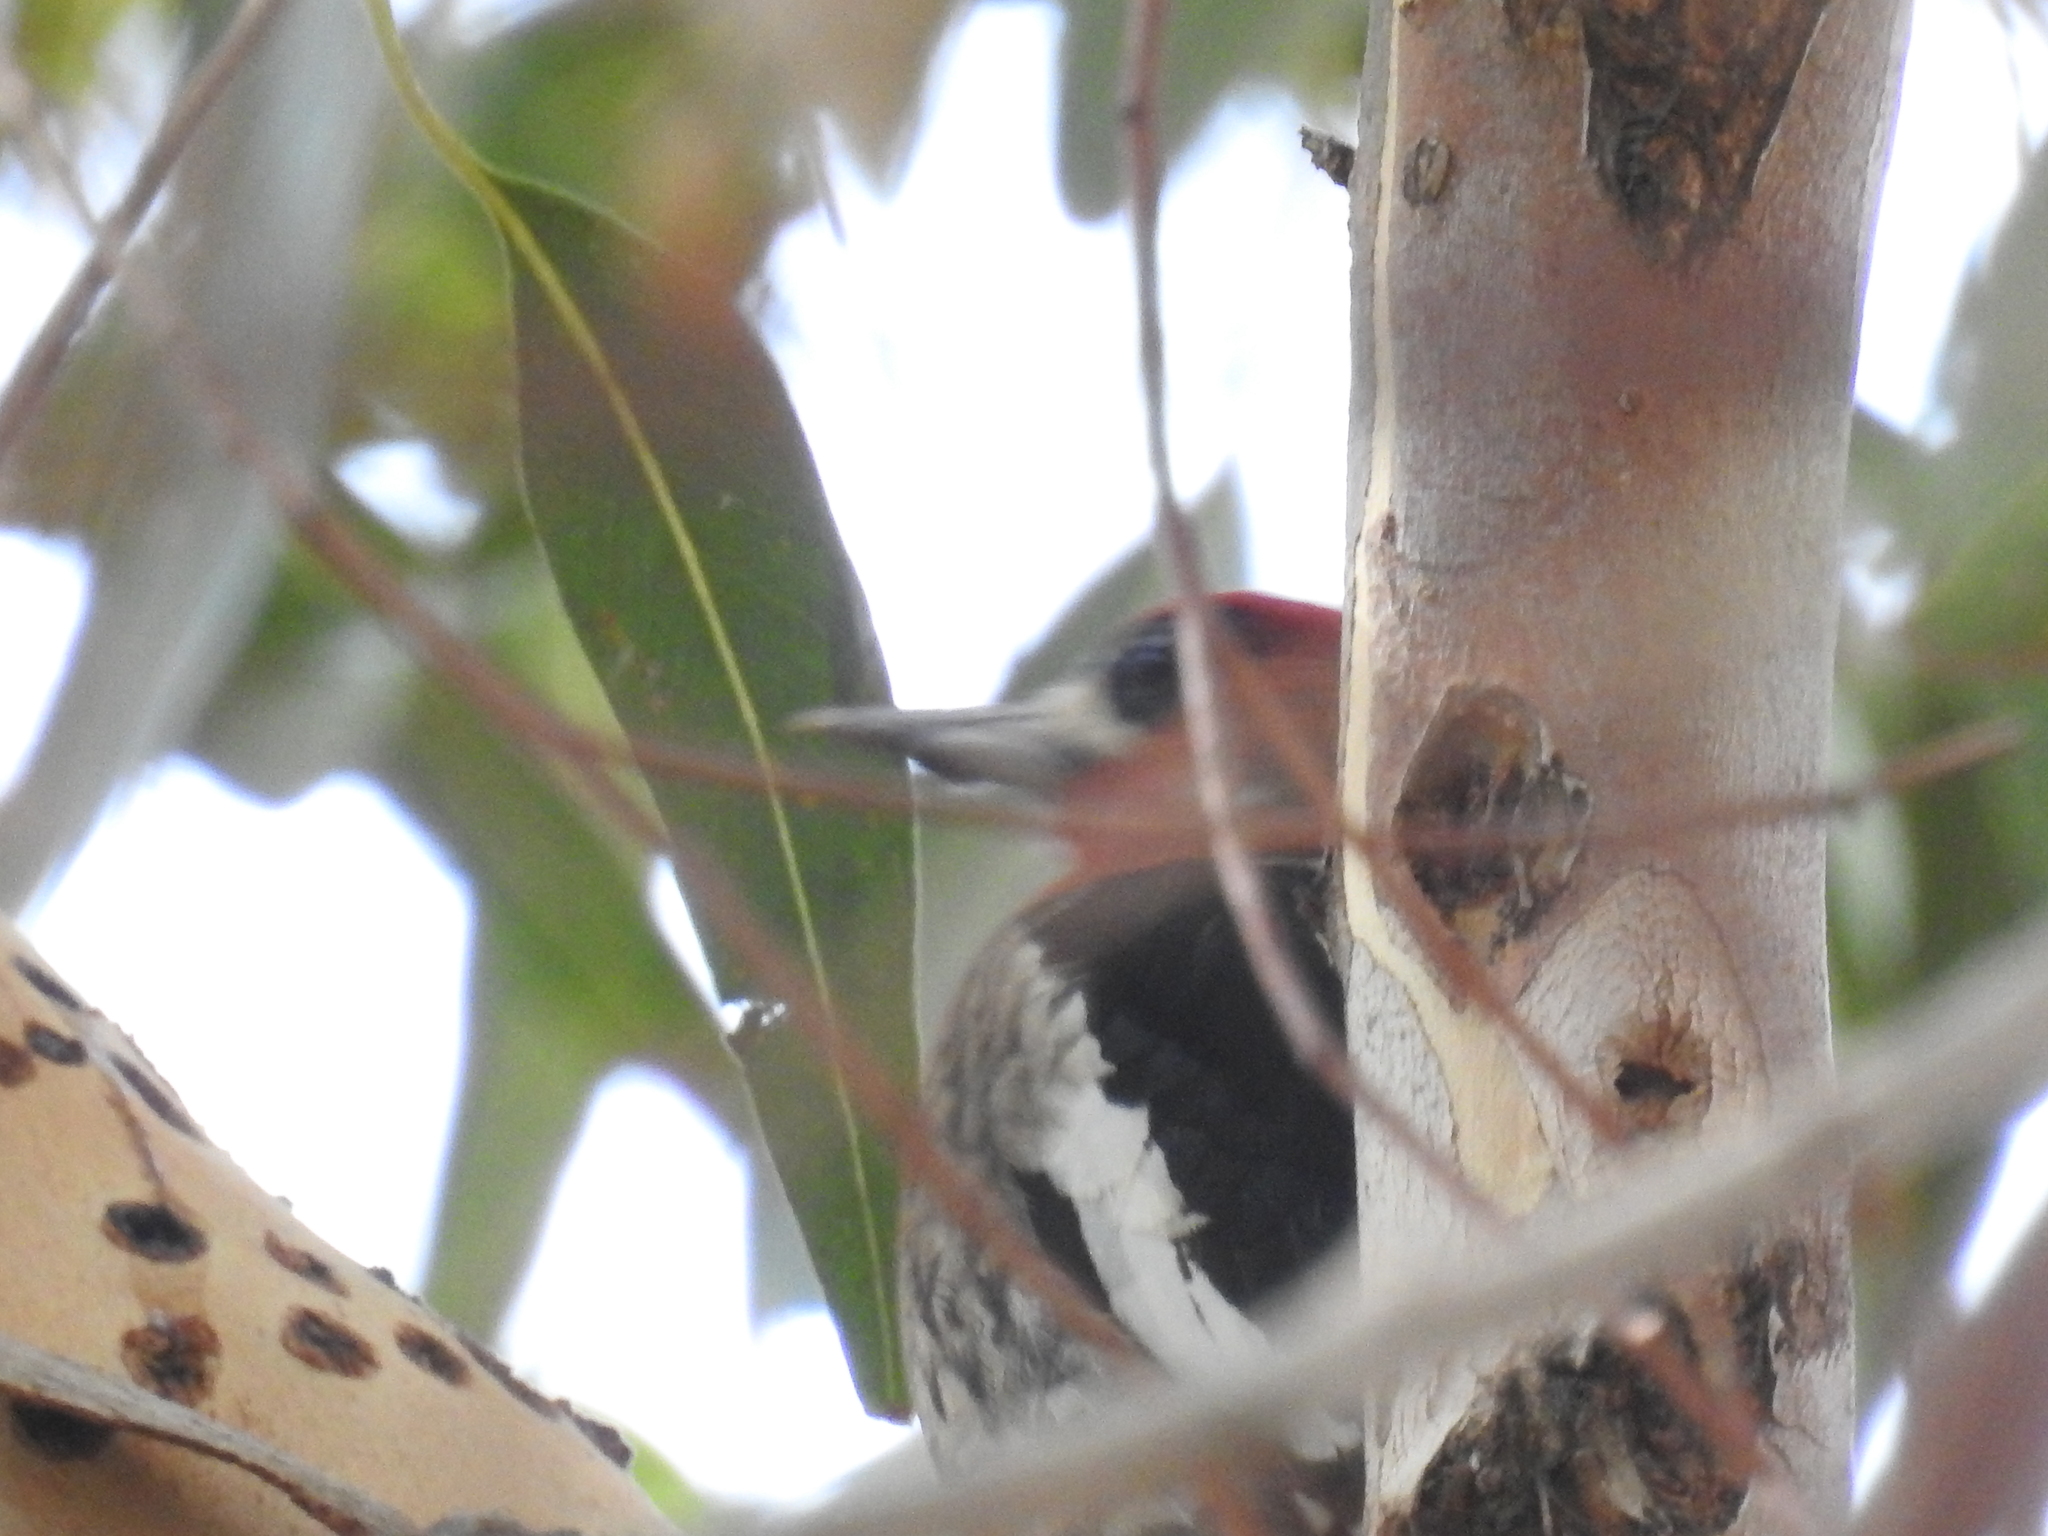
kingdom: Animalia
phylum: Chordata
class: Aves
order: Piciformes
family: Picidae
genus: Sphyrapicus
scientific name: Sphyrapicus ruber
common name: Red-breasted sapsucker
